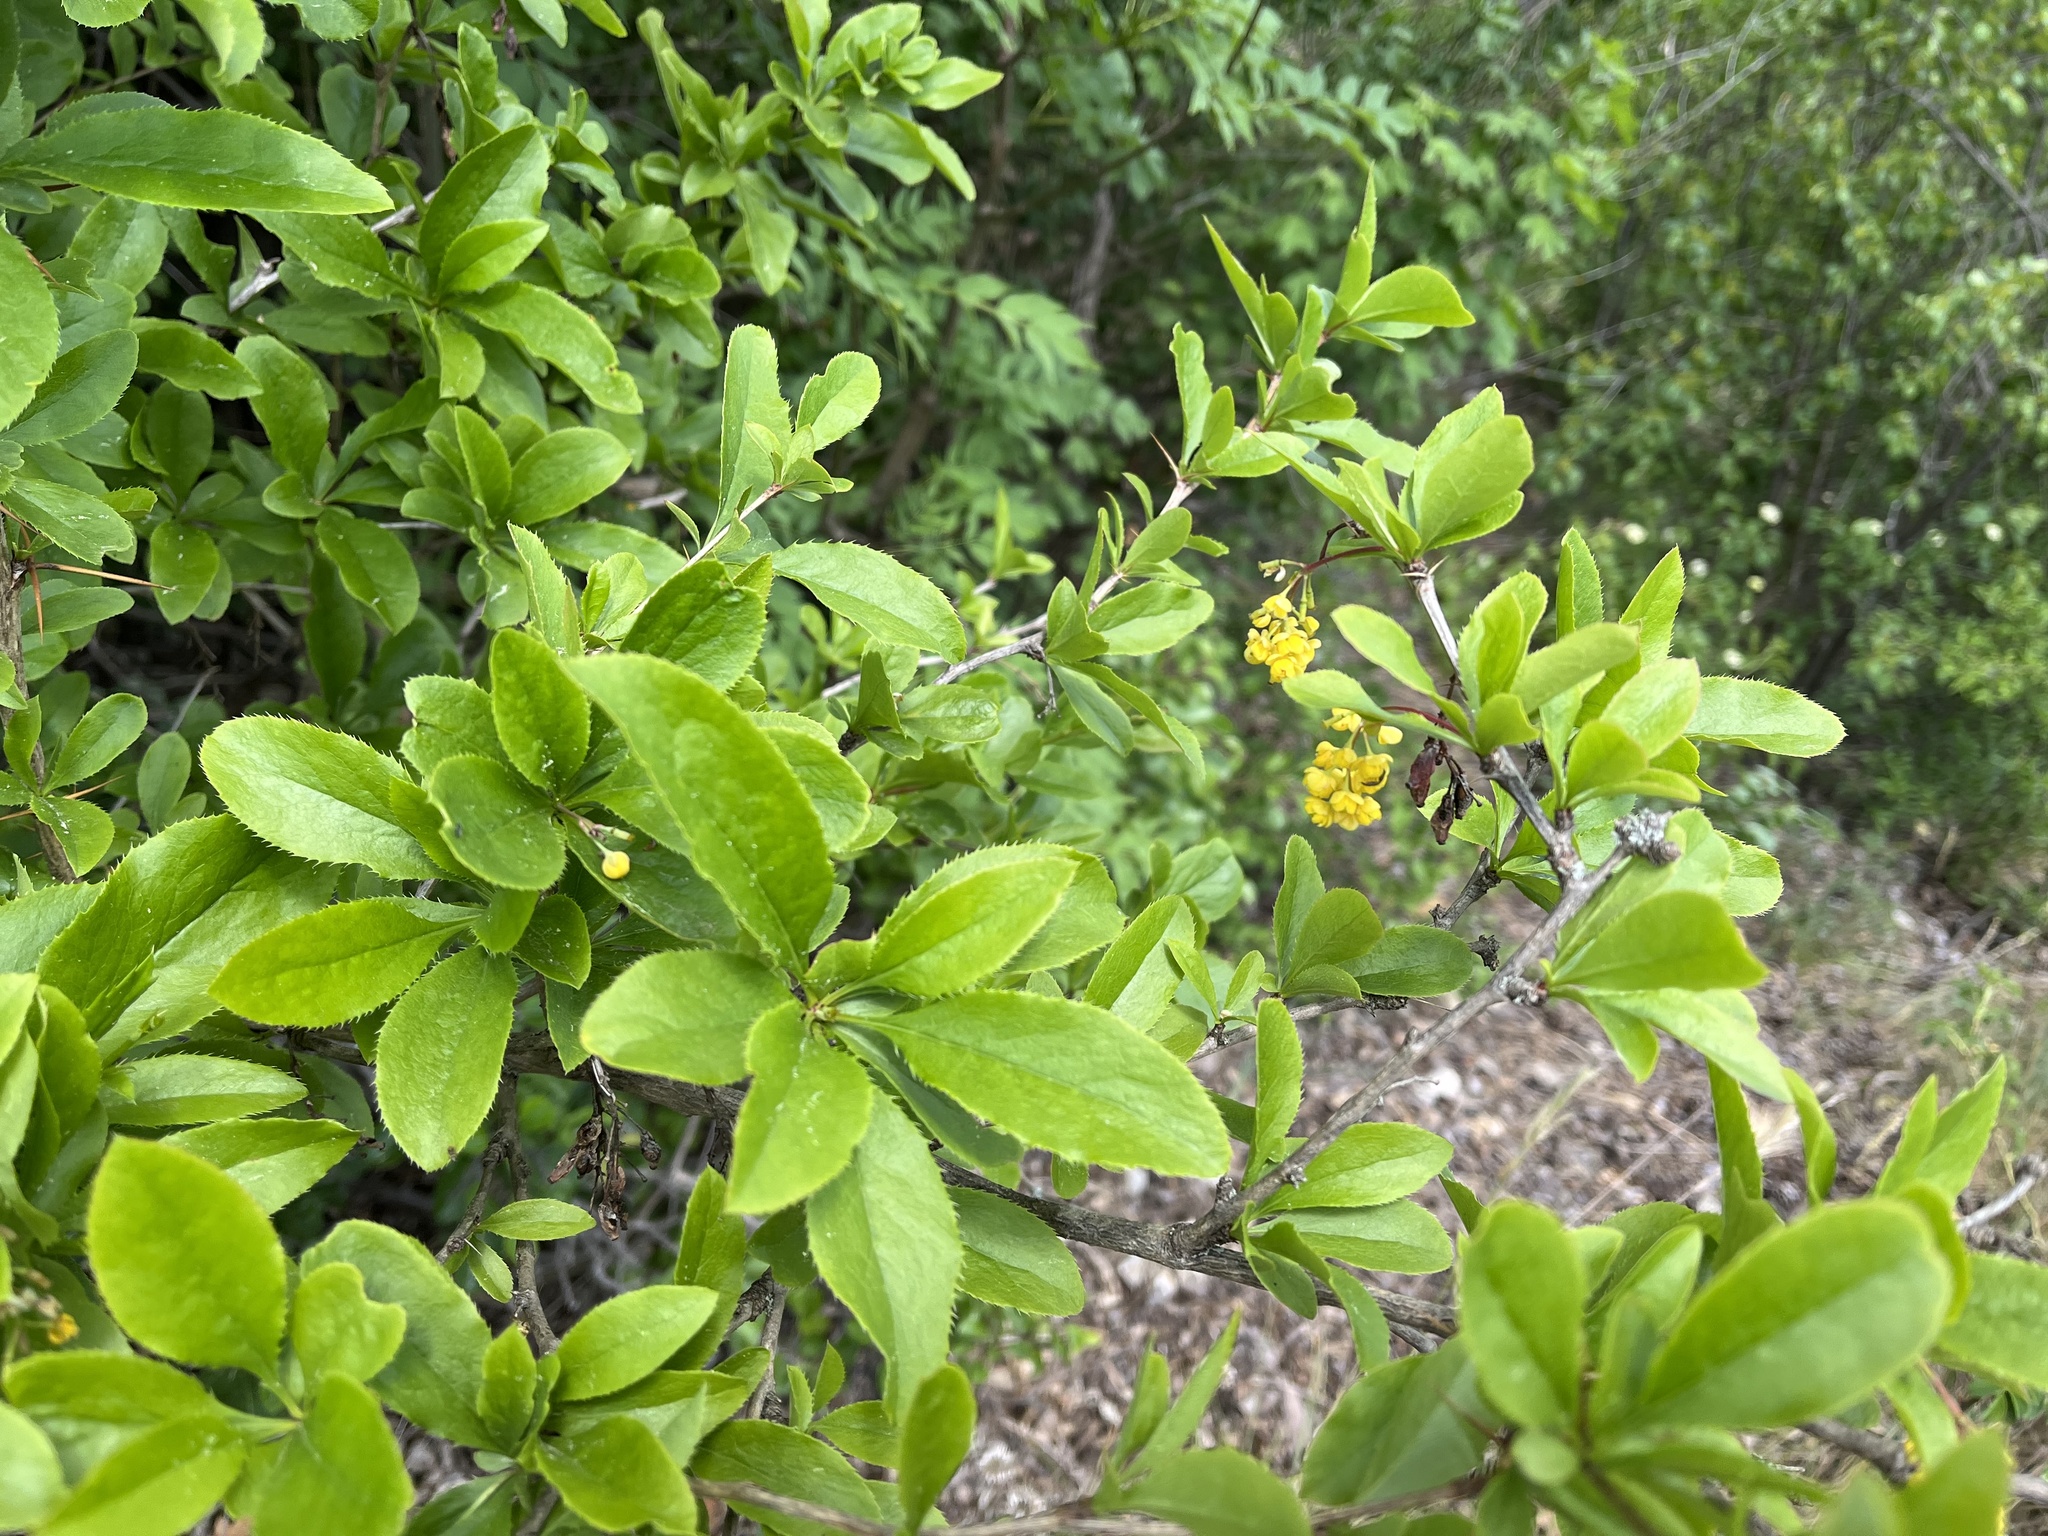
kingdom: Plantae
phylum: Tracheophyta
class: Magnoliopsida
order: Ranunculales
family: Berberidaceae
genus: Berberis
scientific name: Berberis vulgaris
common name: Barberry
